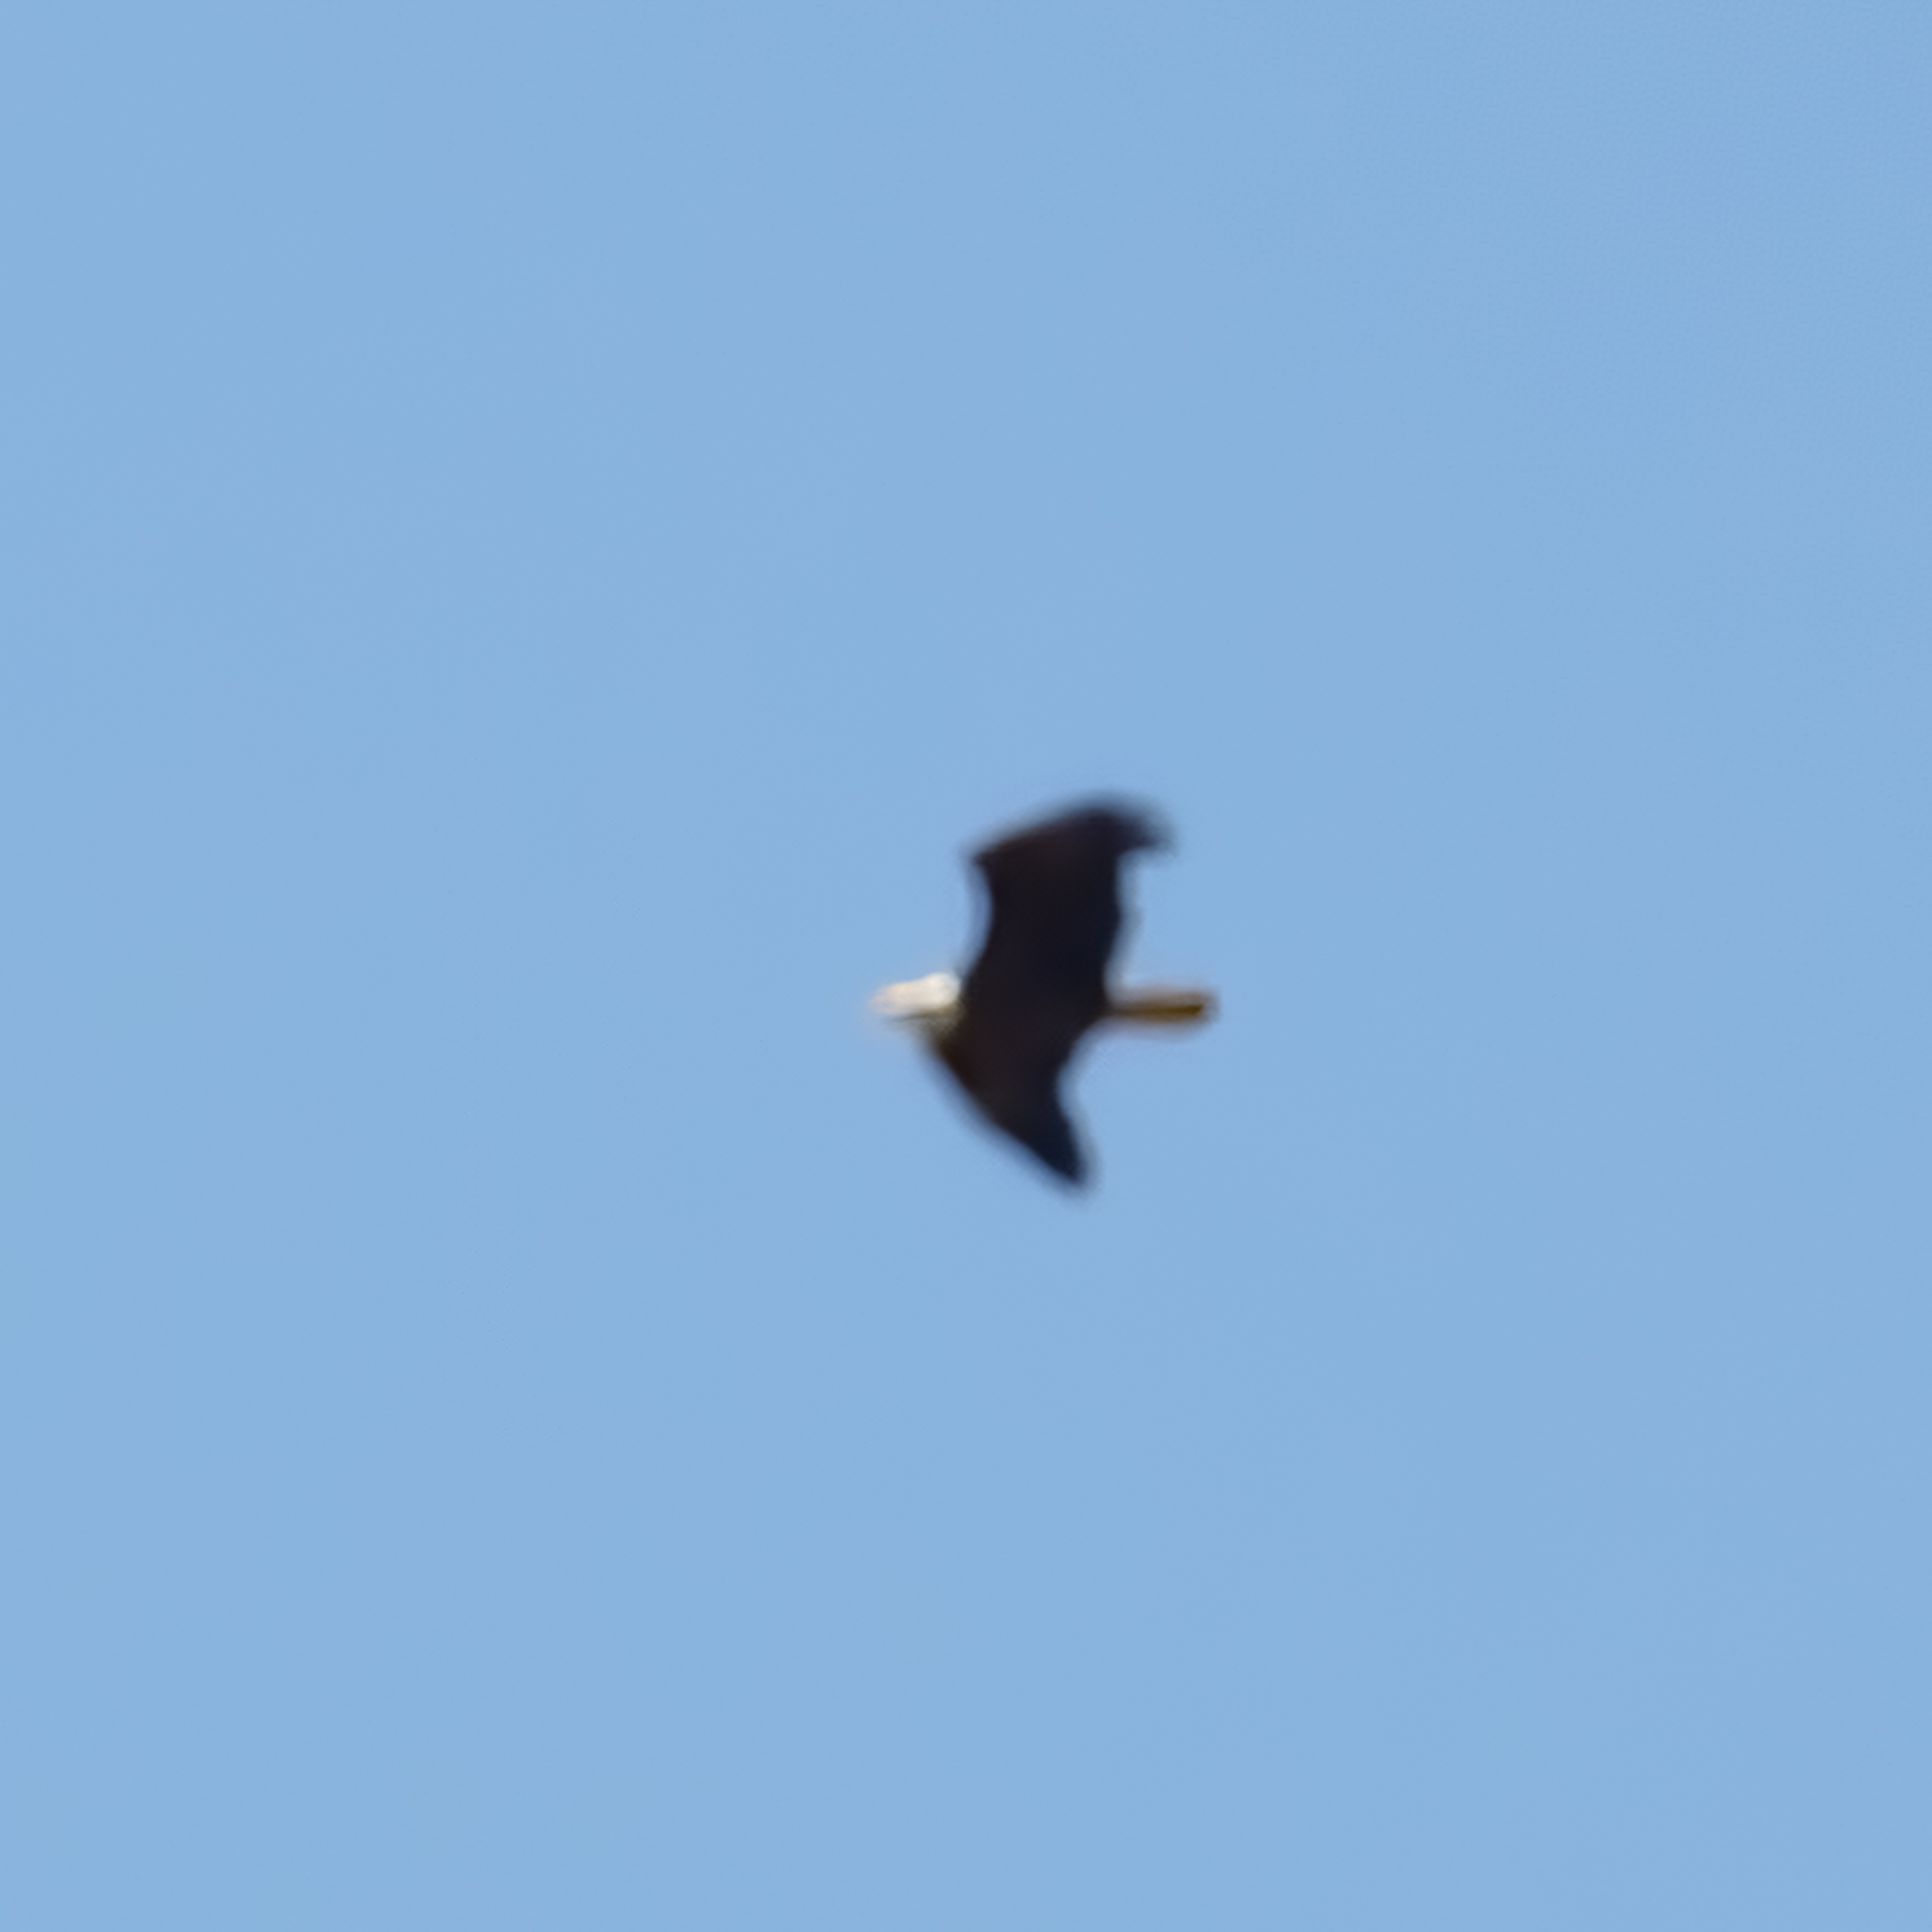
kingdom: Animalia
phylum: Chordata
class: Aves
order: Accipitriformes
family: Accipitridae
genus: Haliaeetus
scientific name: Haliaeetus leucocephalus
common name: Bald eagle
